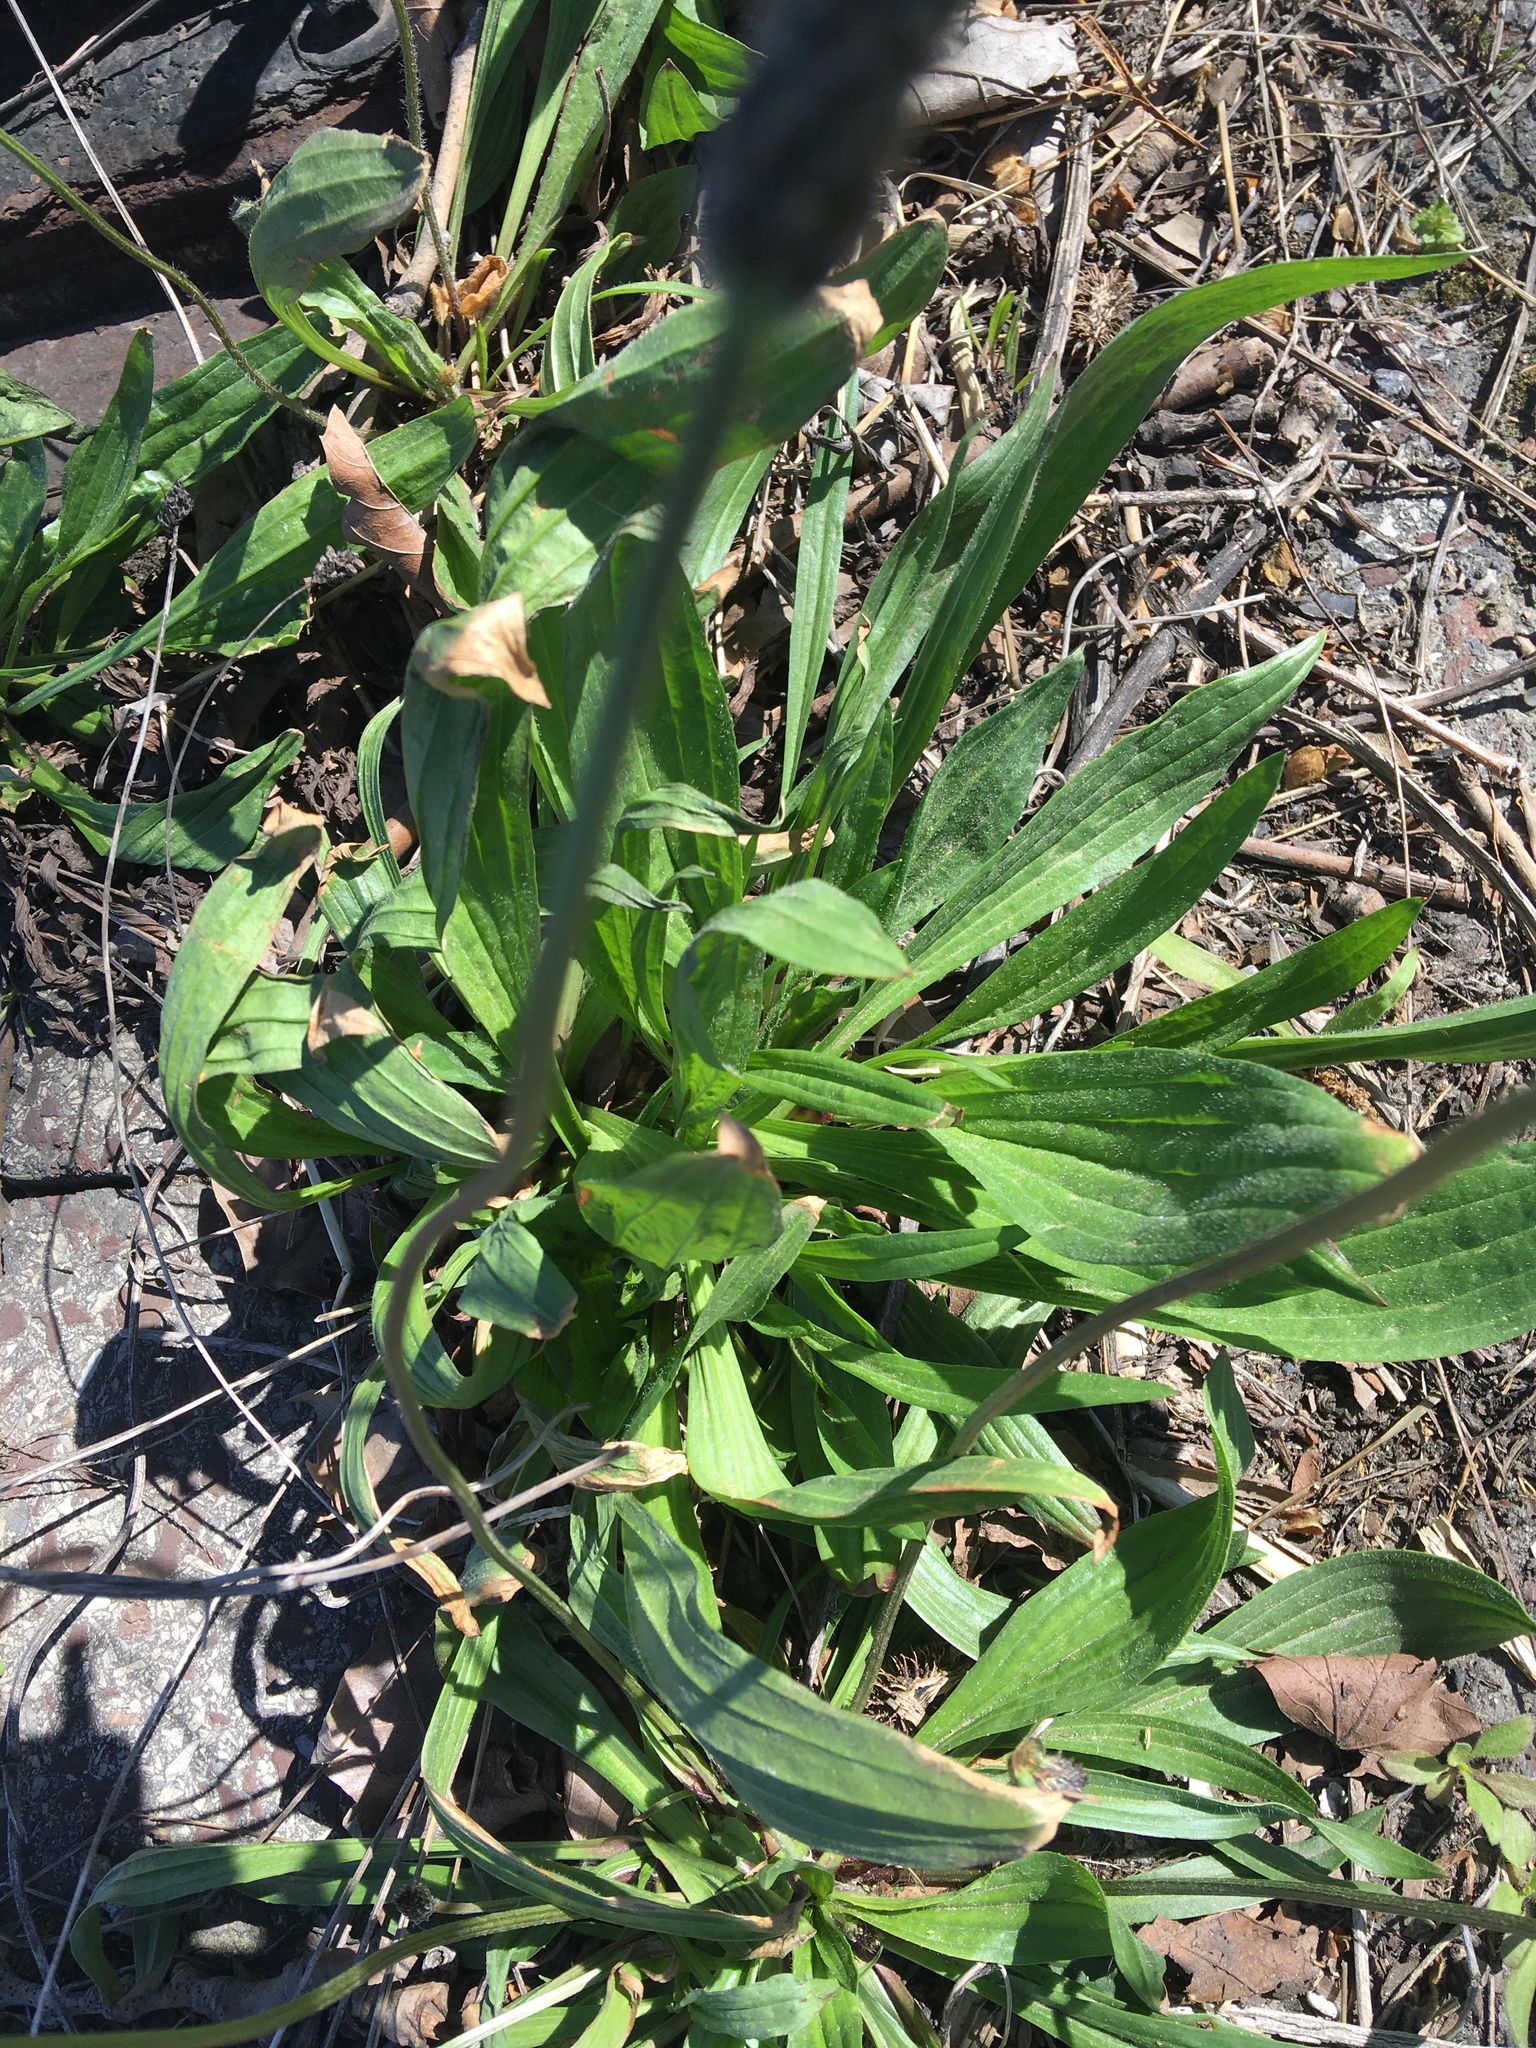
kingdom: Plantae
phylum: Tracheophyta
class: Magnoliopsida
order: Lamiales
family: Plantaginaceae
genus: Plantago
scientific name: Plantago lanceolata
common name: Ribwort plantain
